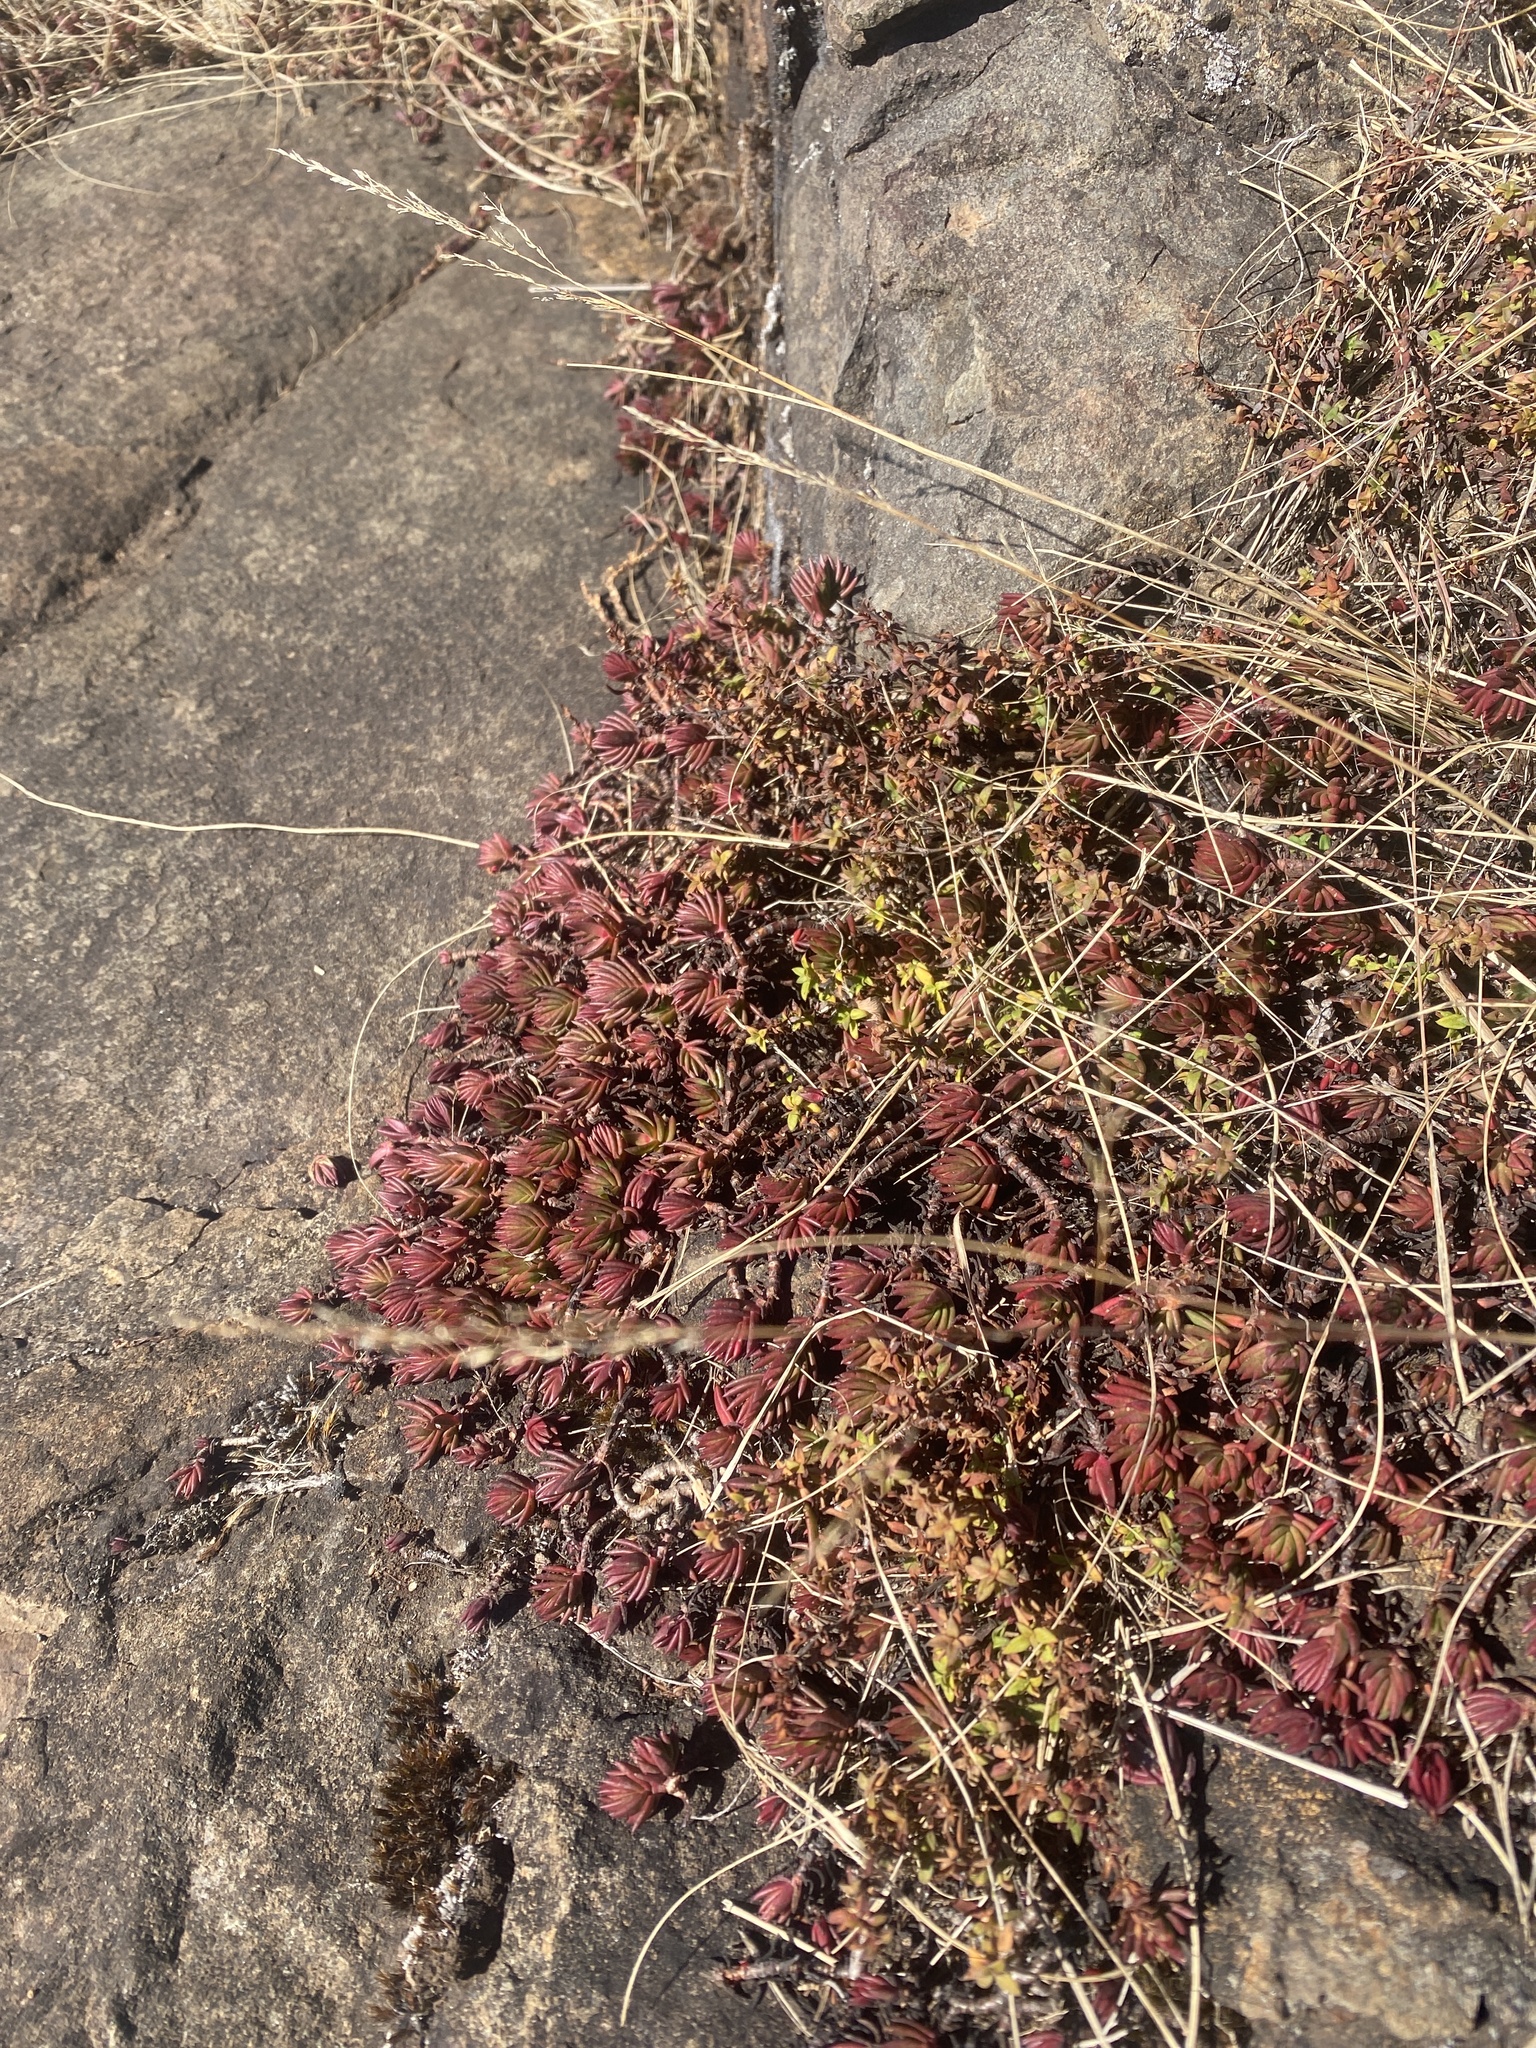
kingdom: Plantae
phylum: Tracheophyta
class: Magnoliopsida
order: Saxifragales
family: Crassulaceae
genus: Crassula
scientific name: Crassula dependens
